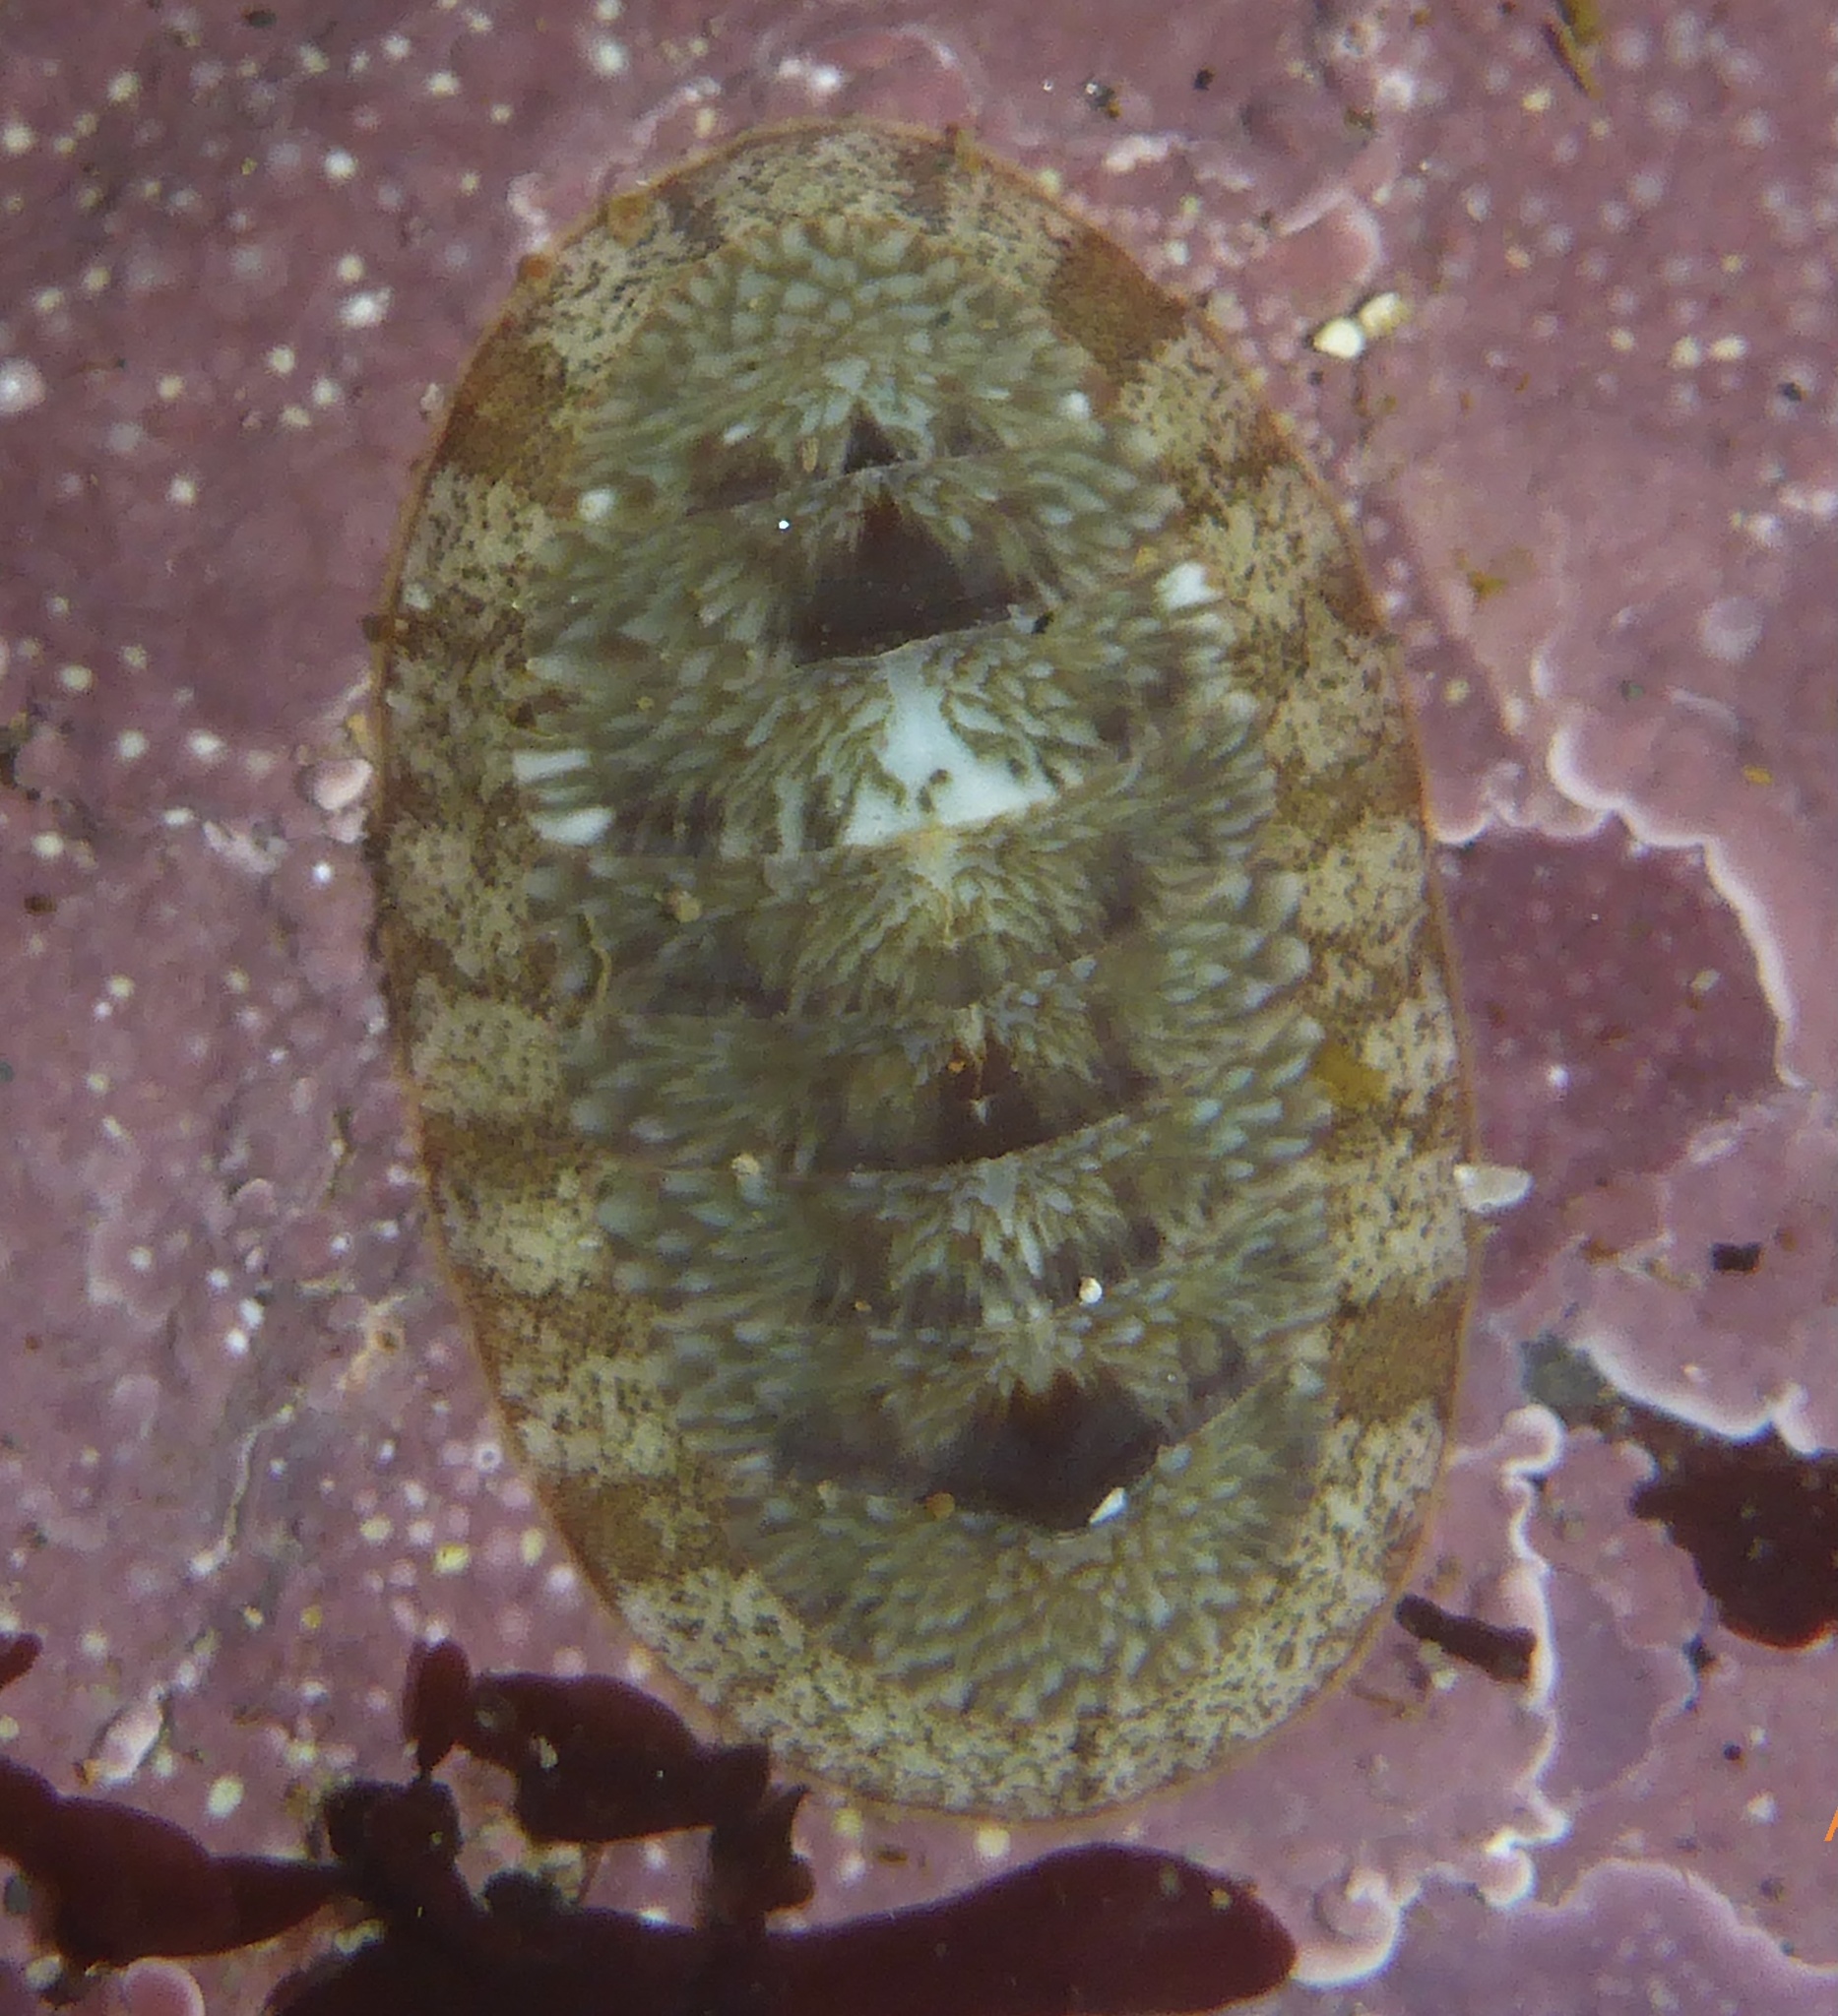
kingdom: Animalia
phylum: Mollusca
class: Polyplacophora
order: Chitonida
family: Ischnochitonidae
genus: Lepidozona
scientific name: Lepidozona radians
